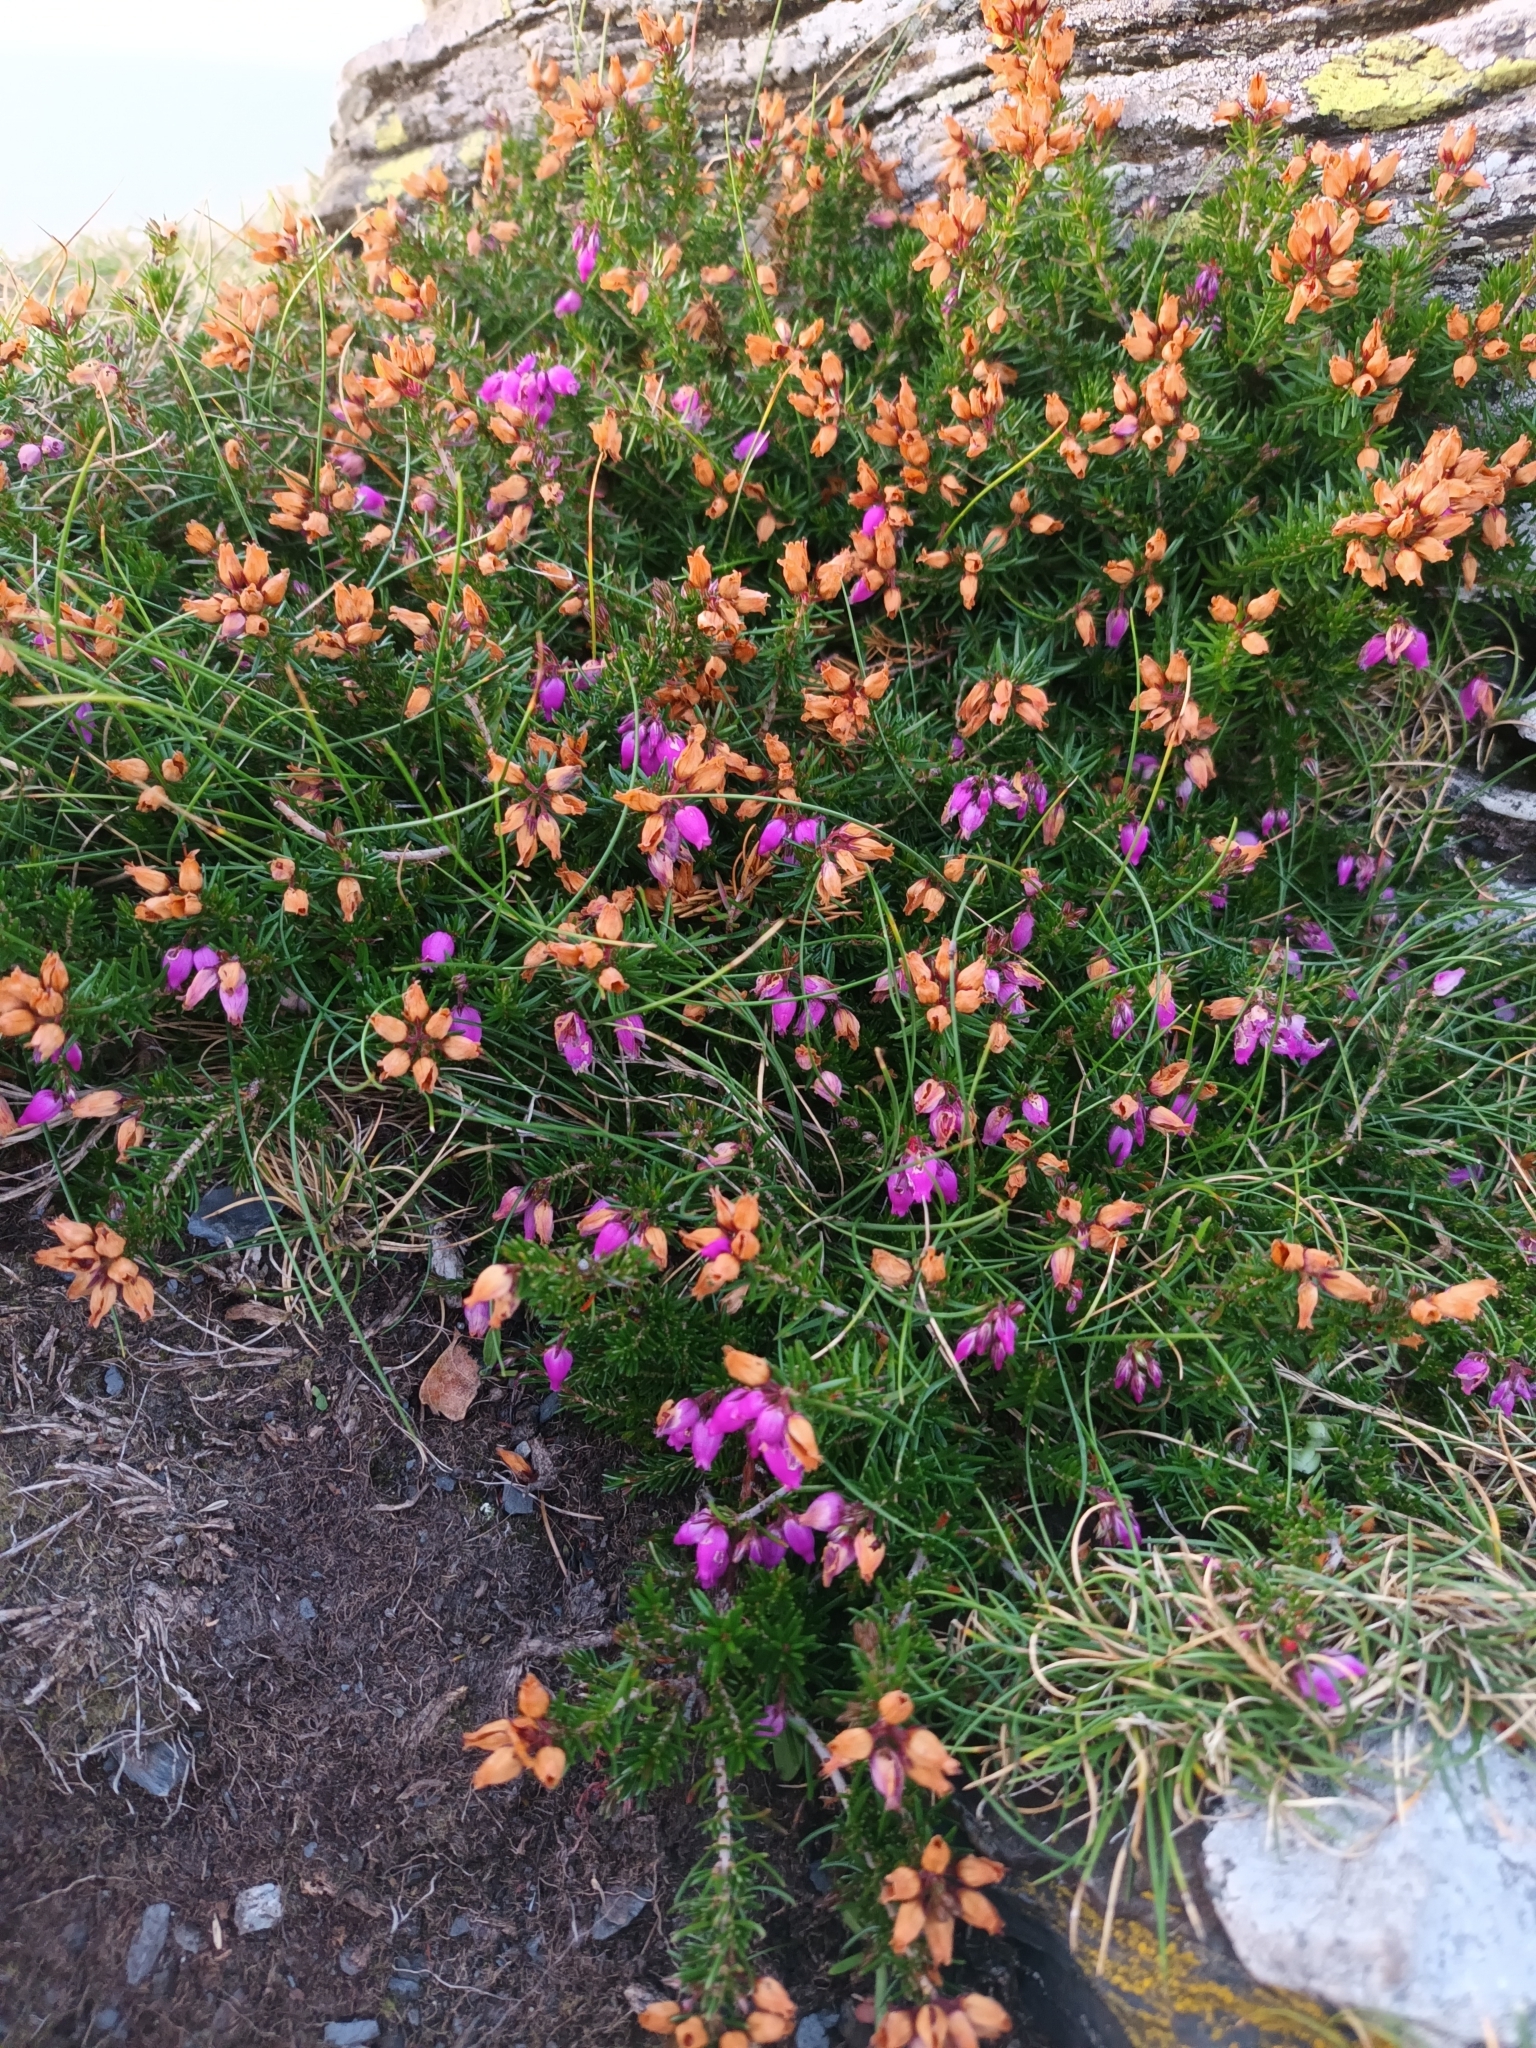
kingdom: Plantae
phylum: Tracheophyta
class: Magnoliopsida
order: Ericales
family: Ericaceae
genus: Erica
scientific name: Erica cinerea
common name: Bell heather
